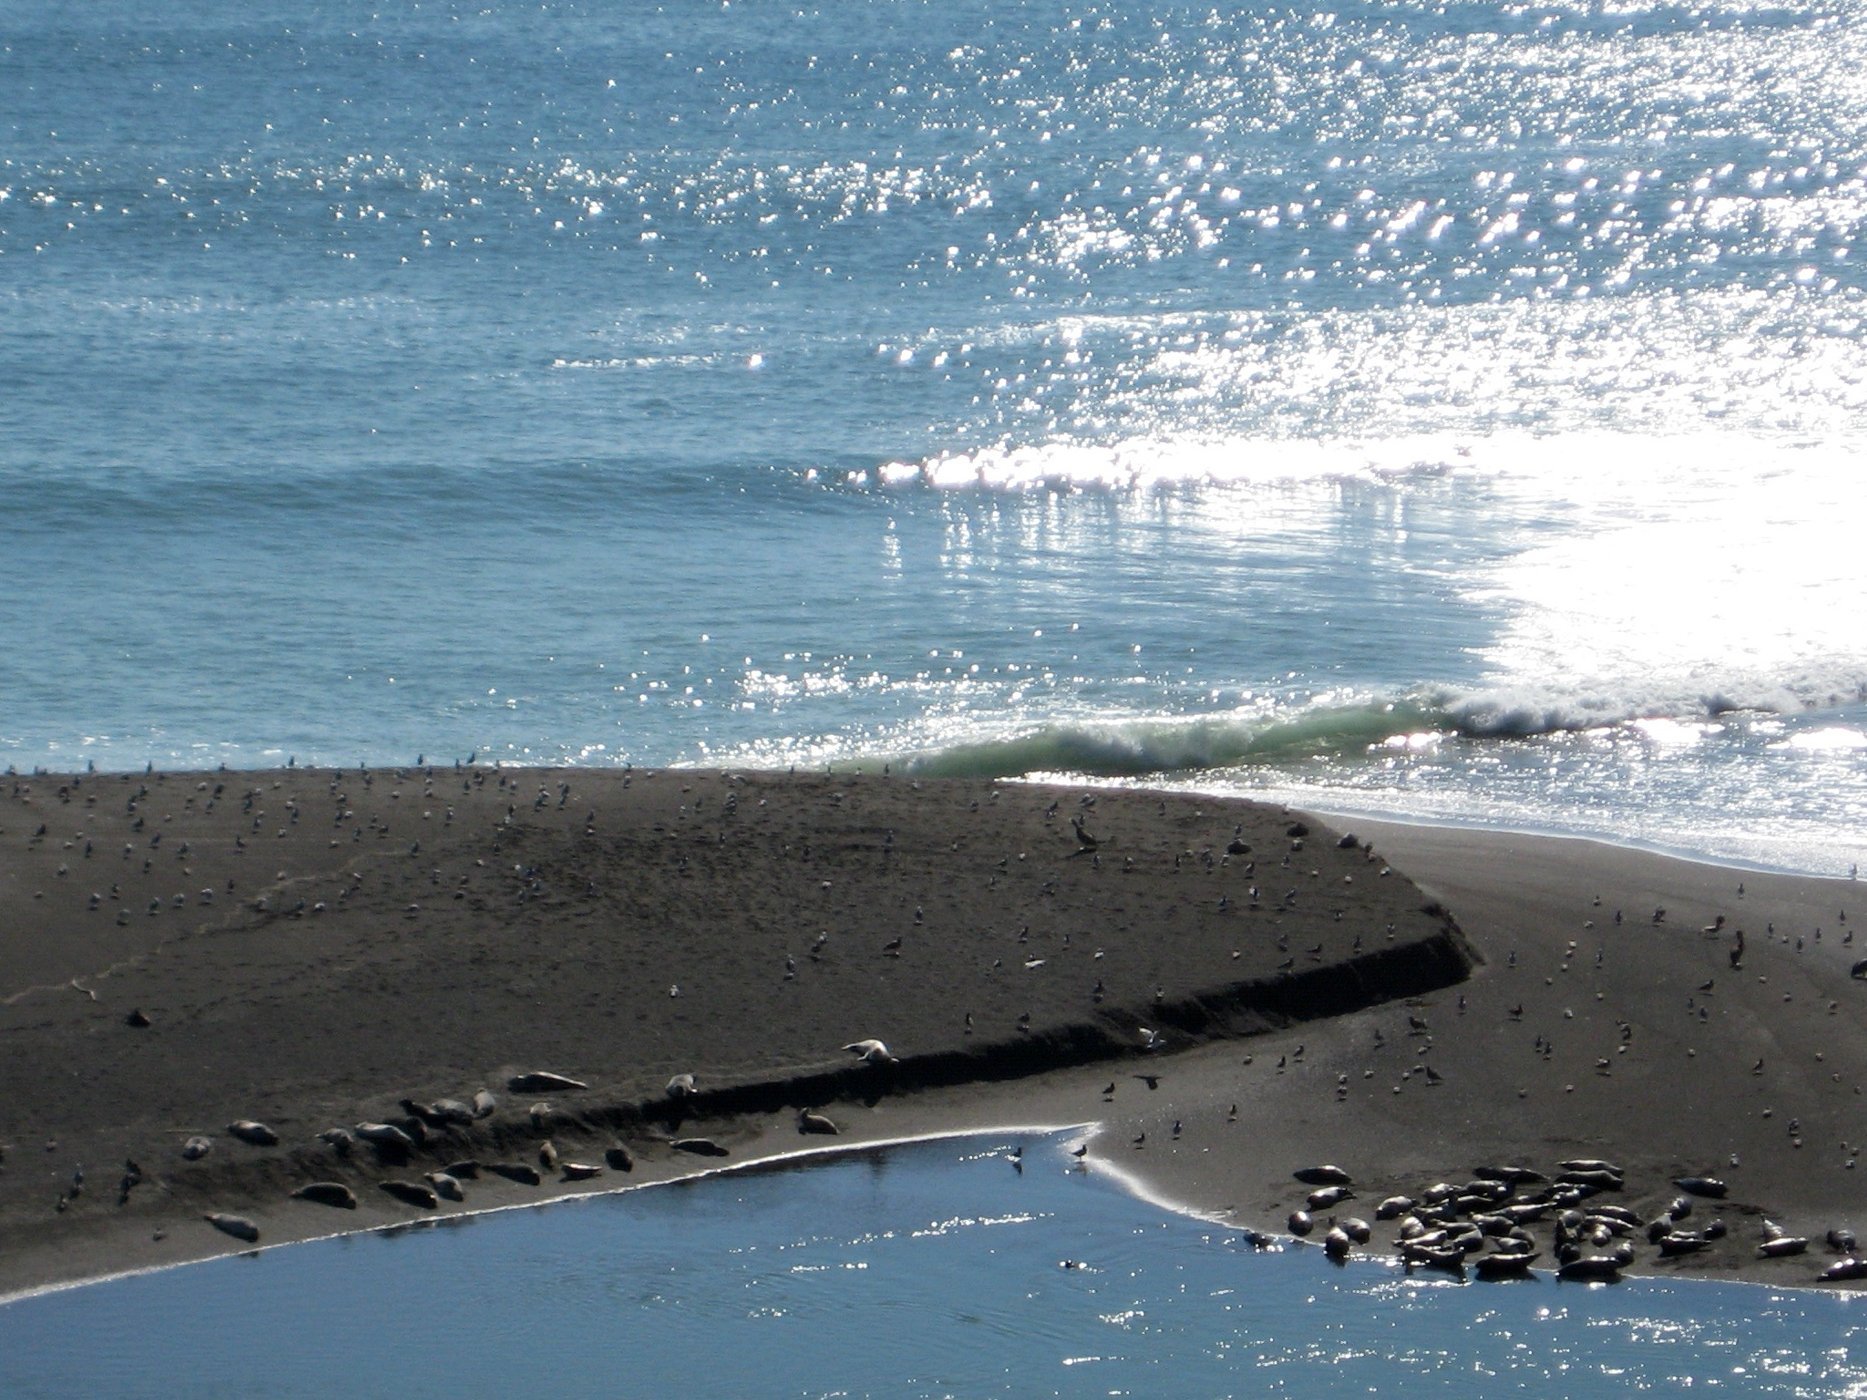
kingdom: Animalia
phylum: Chordata
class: Mammalia
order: Carnivora
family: Phocidae
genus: Phoca
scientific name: Phoca vitulina
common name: Harbor seal
